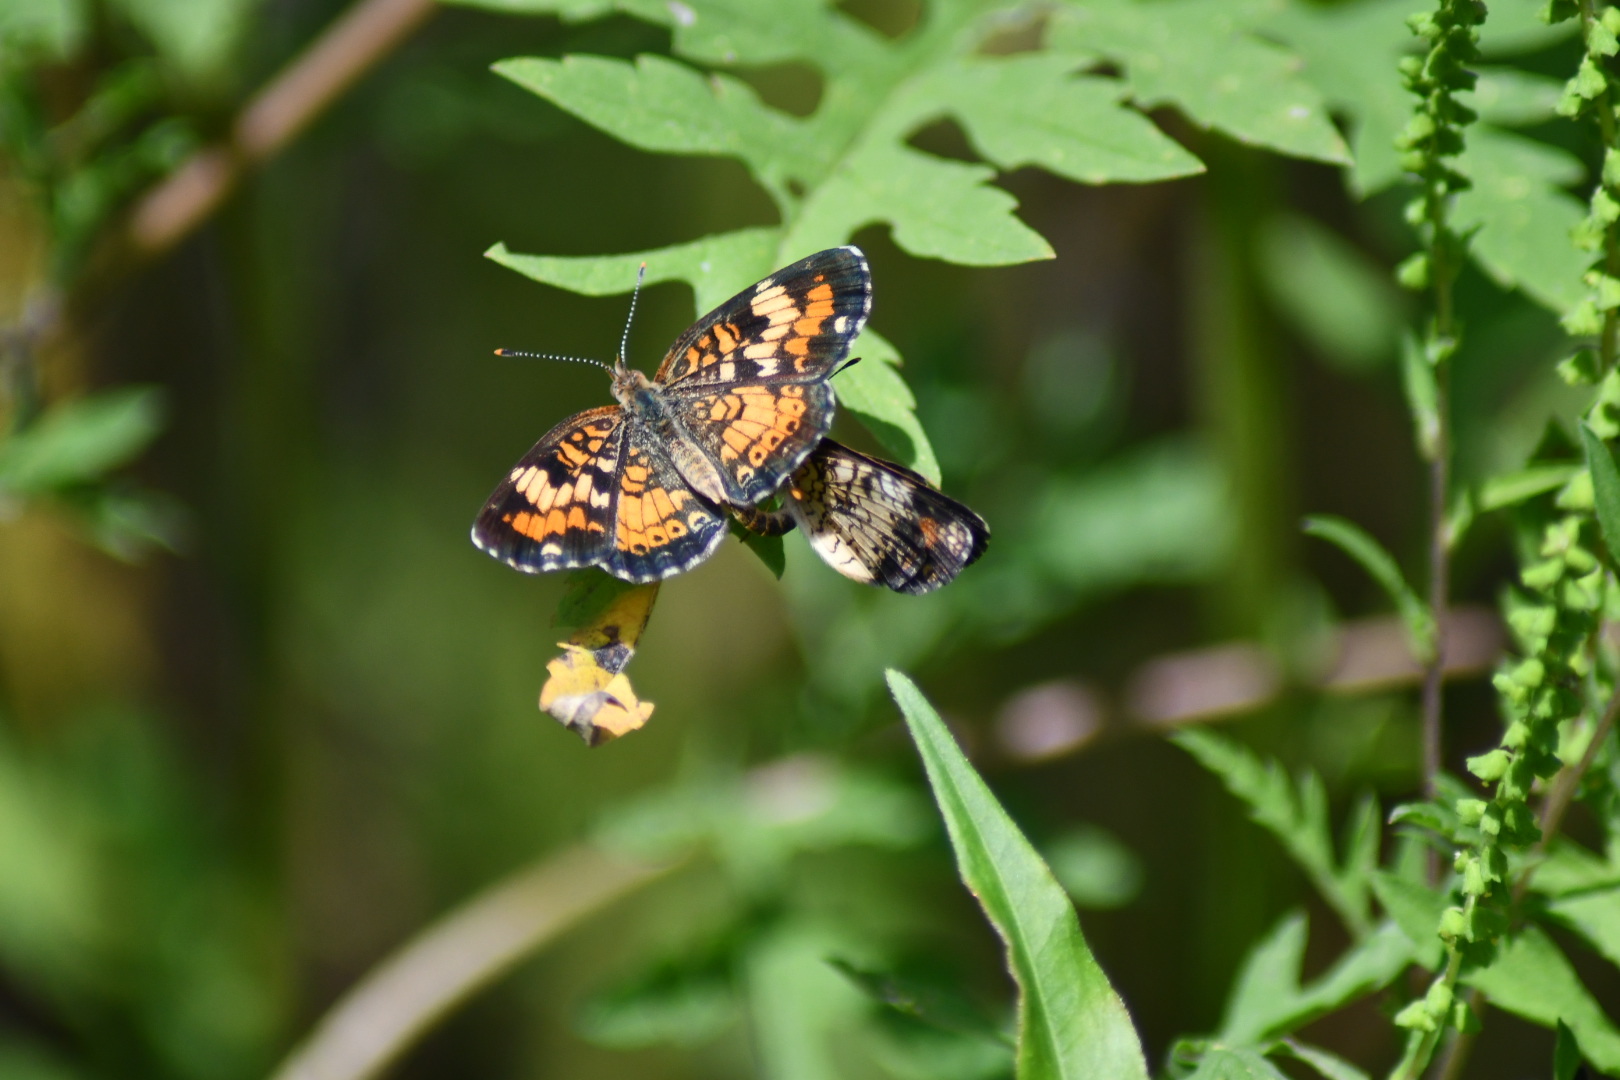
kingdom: Animalia
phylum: Arthropoda
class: Insecta
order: Lepidoptera
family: Nymphalidae
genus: Phyciodes
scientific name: Phyciodes phaon
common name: Phaon crescent
